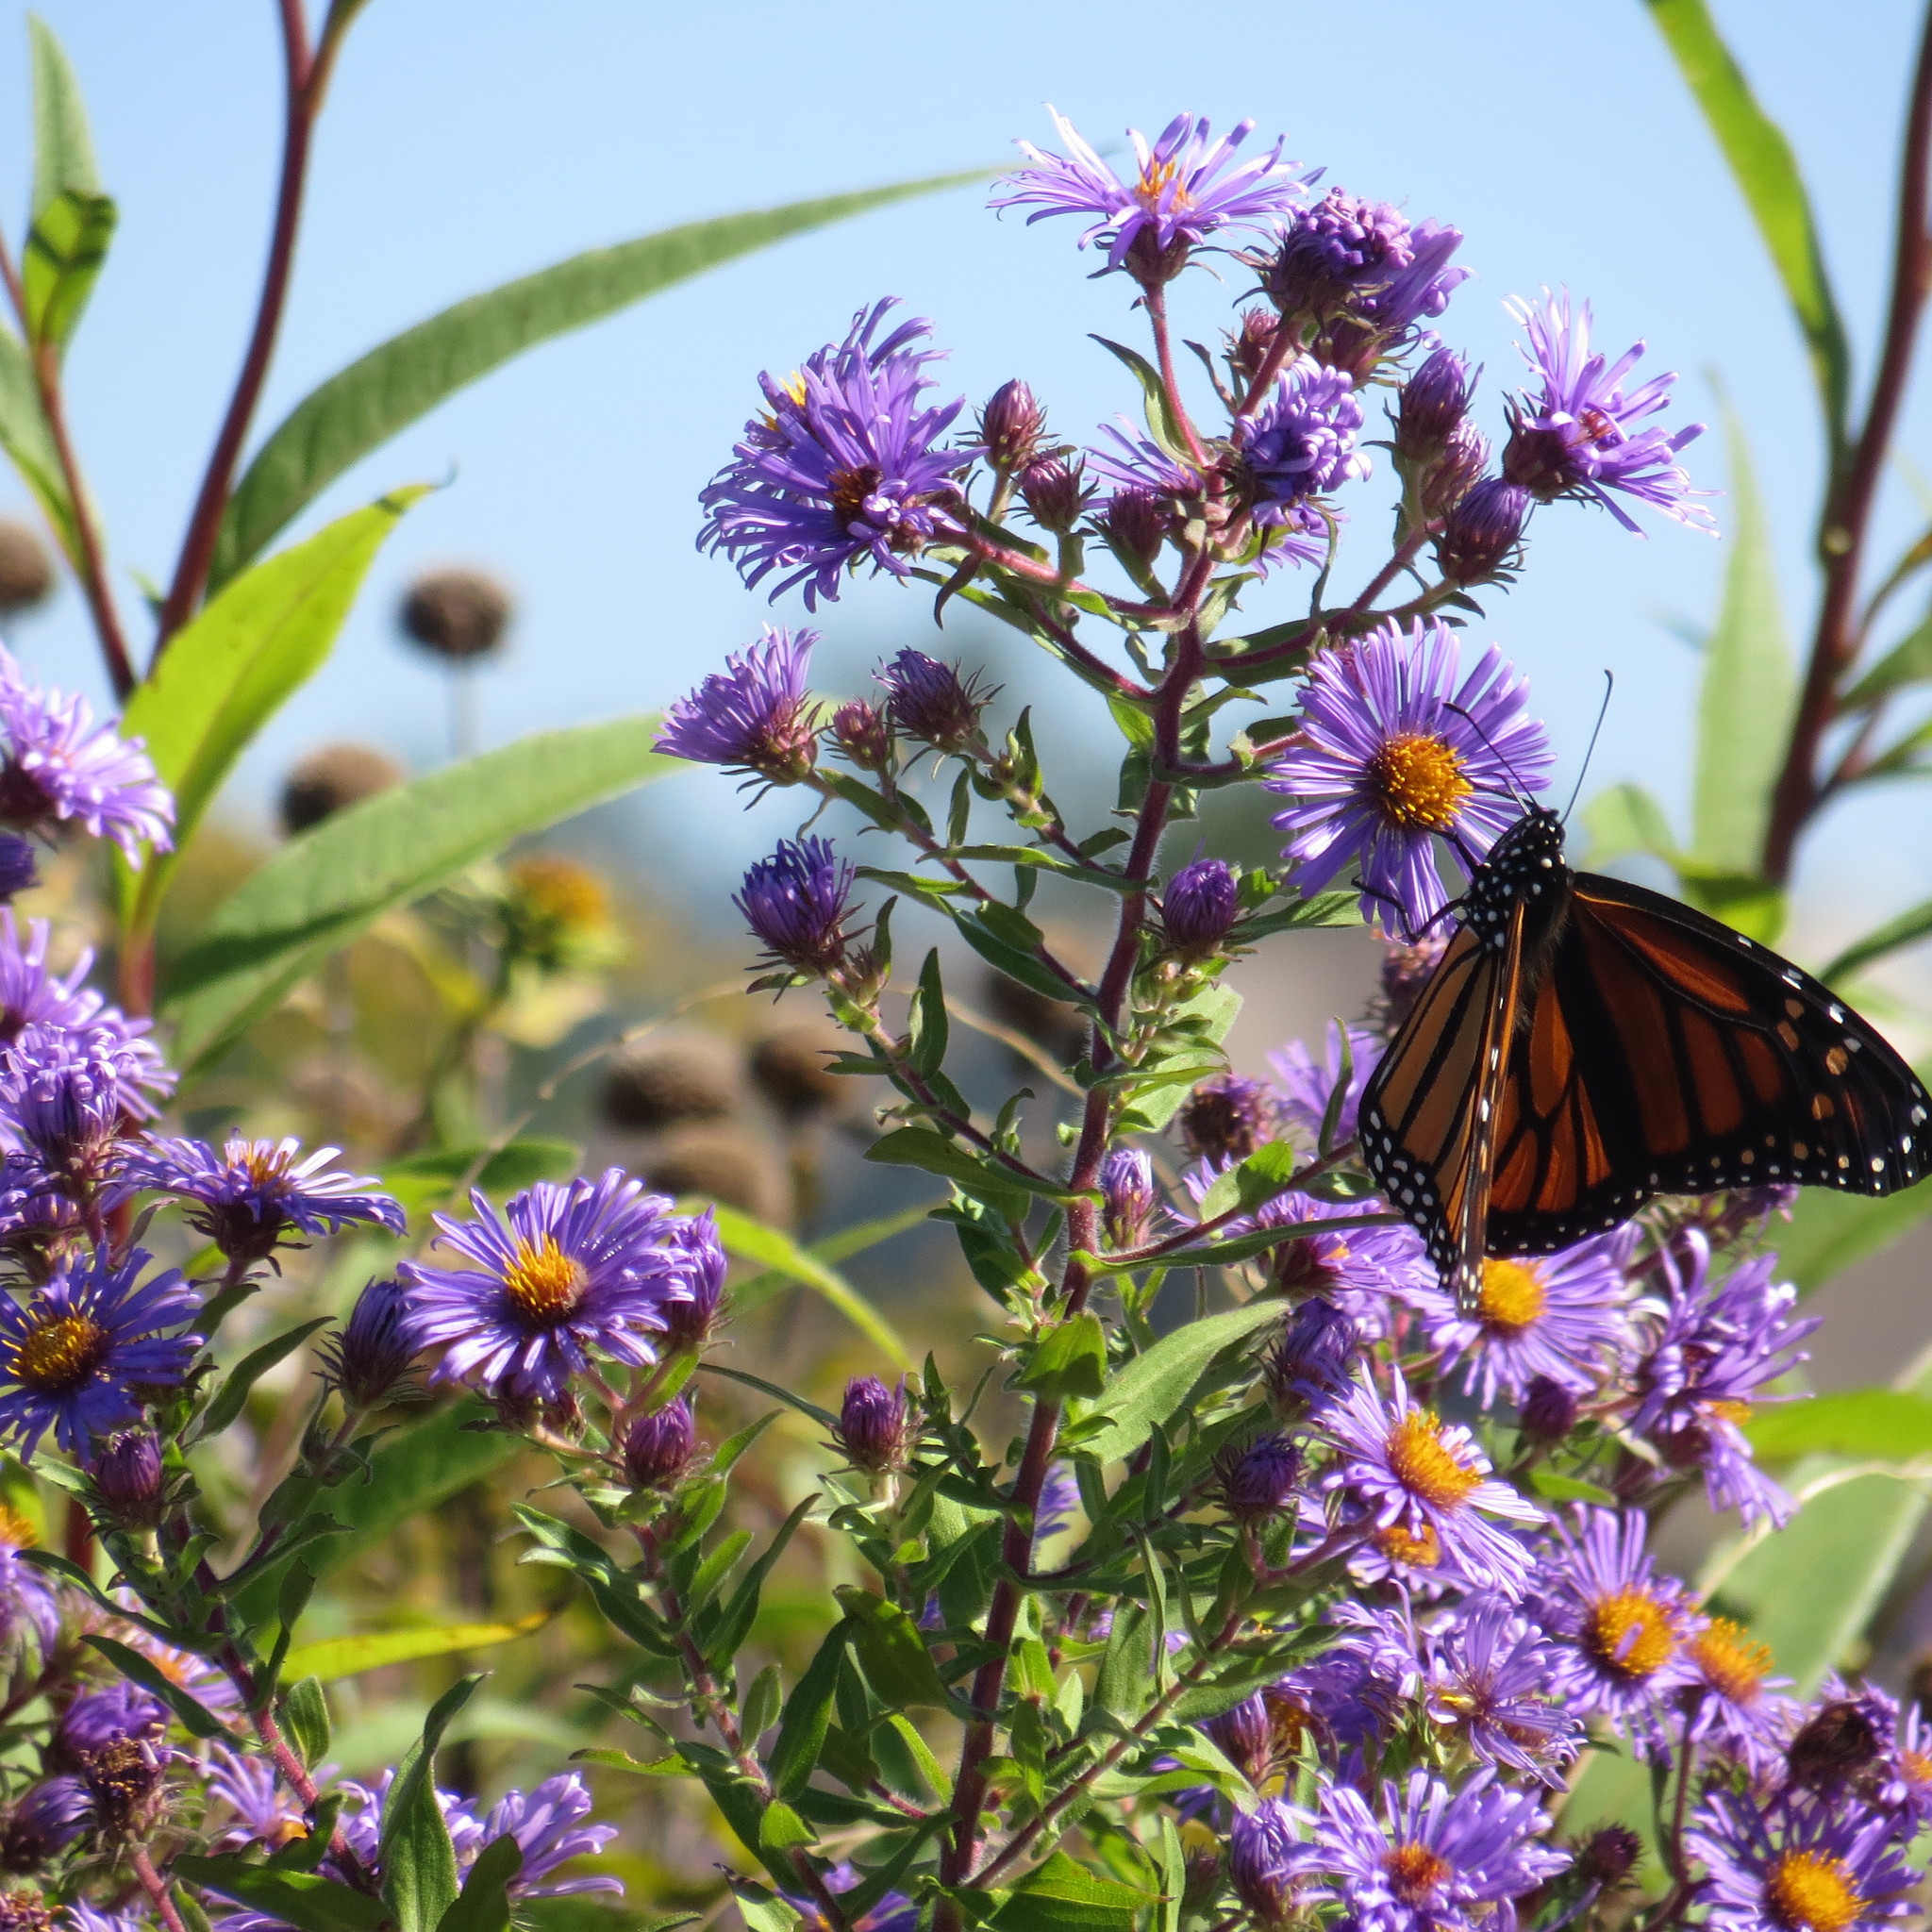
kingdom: Plantae
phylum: Tracheophyta
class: Magnoliopsida
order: Asterales
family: Asteraceae
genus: Symphyotrichum
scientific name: Symphyotrichum novae-angliae
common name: Michaelmas daisy
